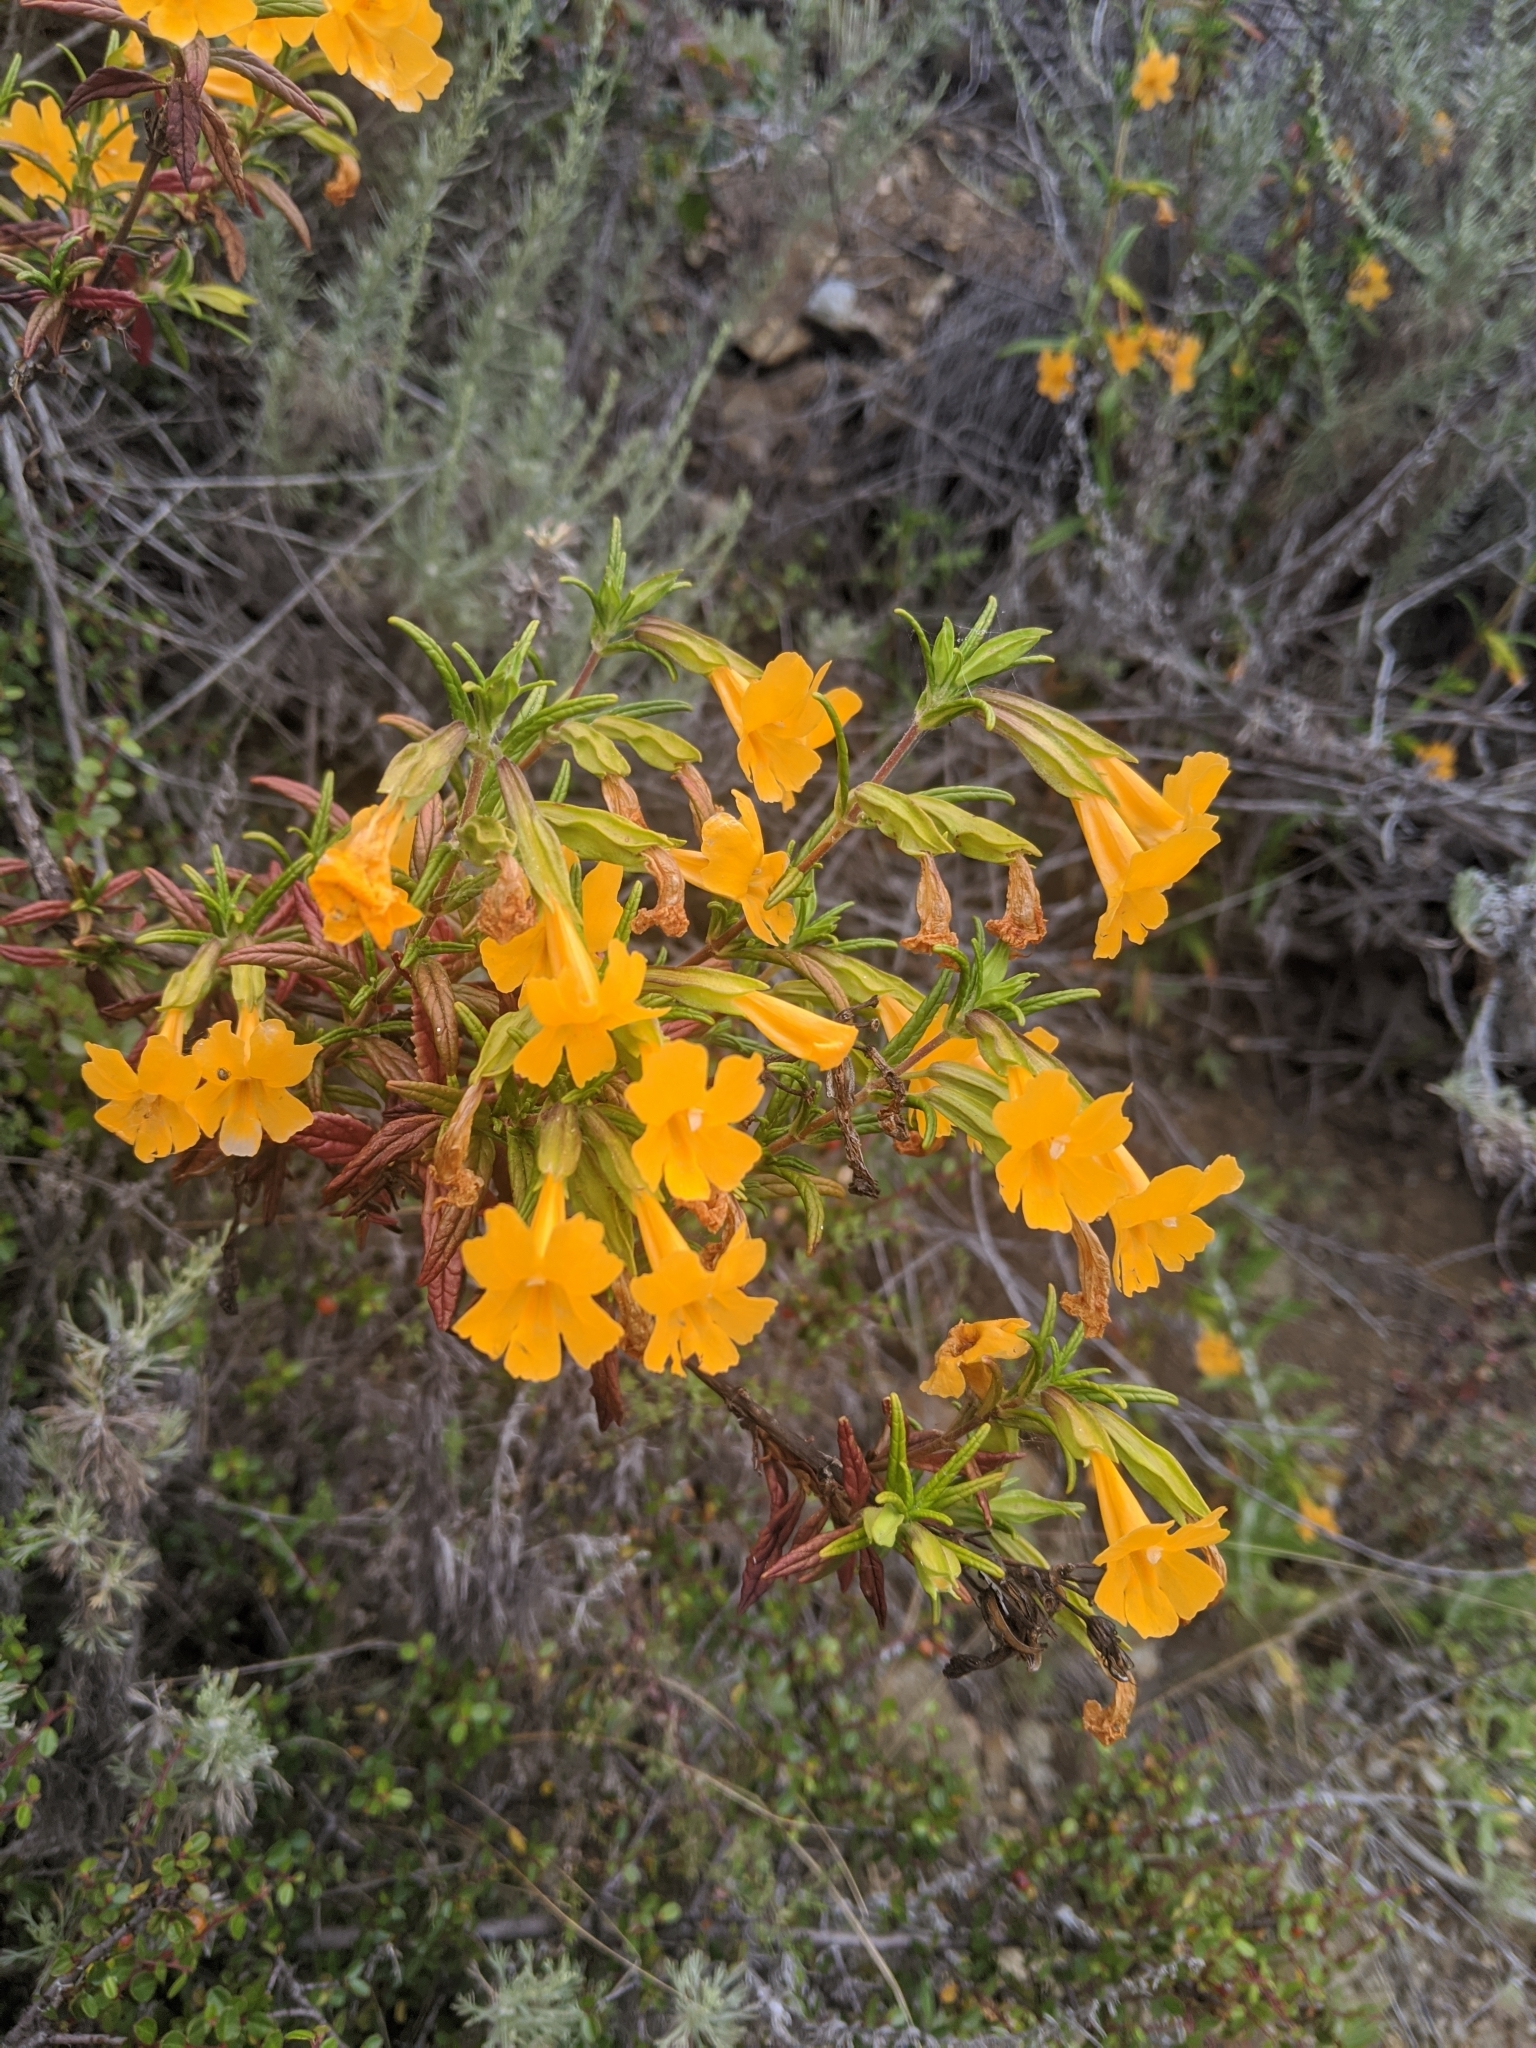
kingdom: Plantae
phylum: Tracheophyta
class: Magnoliopsida
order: Lamiales
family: Phrymaceae
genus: Diplacus
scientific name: Diplacus aurantiacus
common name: Bush monkey-flower
